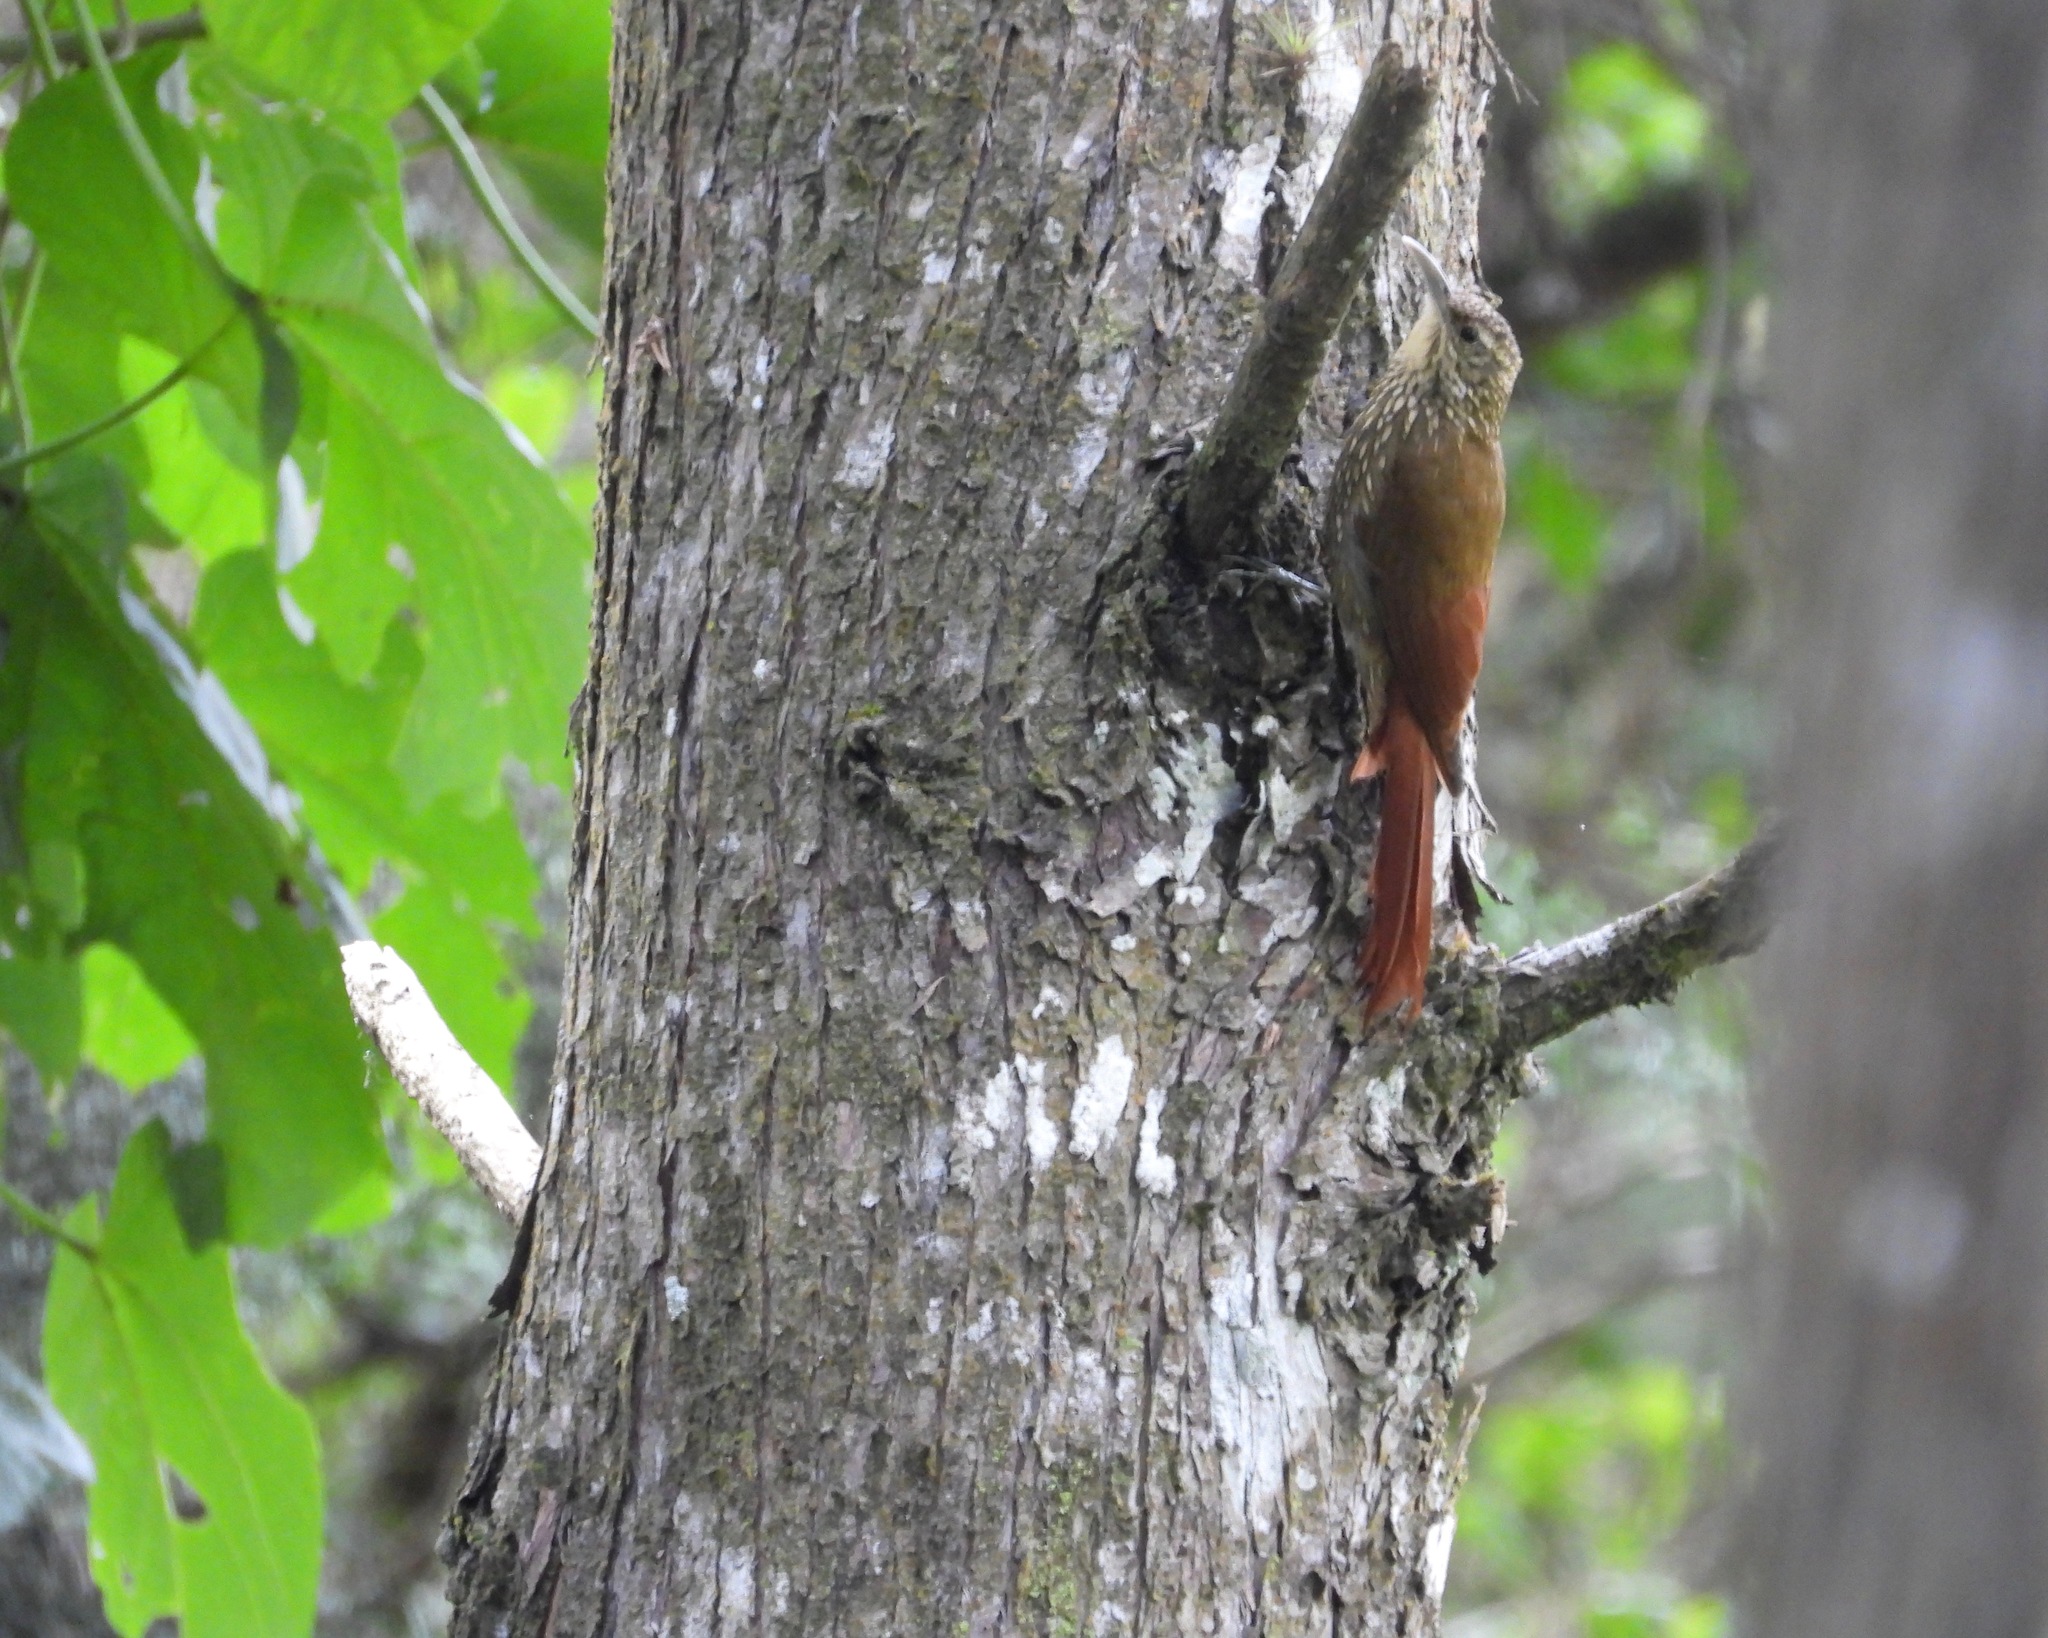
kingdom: Animalia
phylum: Chordata
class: Aves
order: Passeriformes
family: Furnariidae
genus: Lepidocolaptes
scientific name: Lepidocolaptes affinis
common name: Spot-crowned woodcreeper
